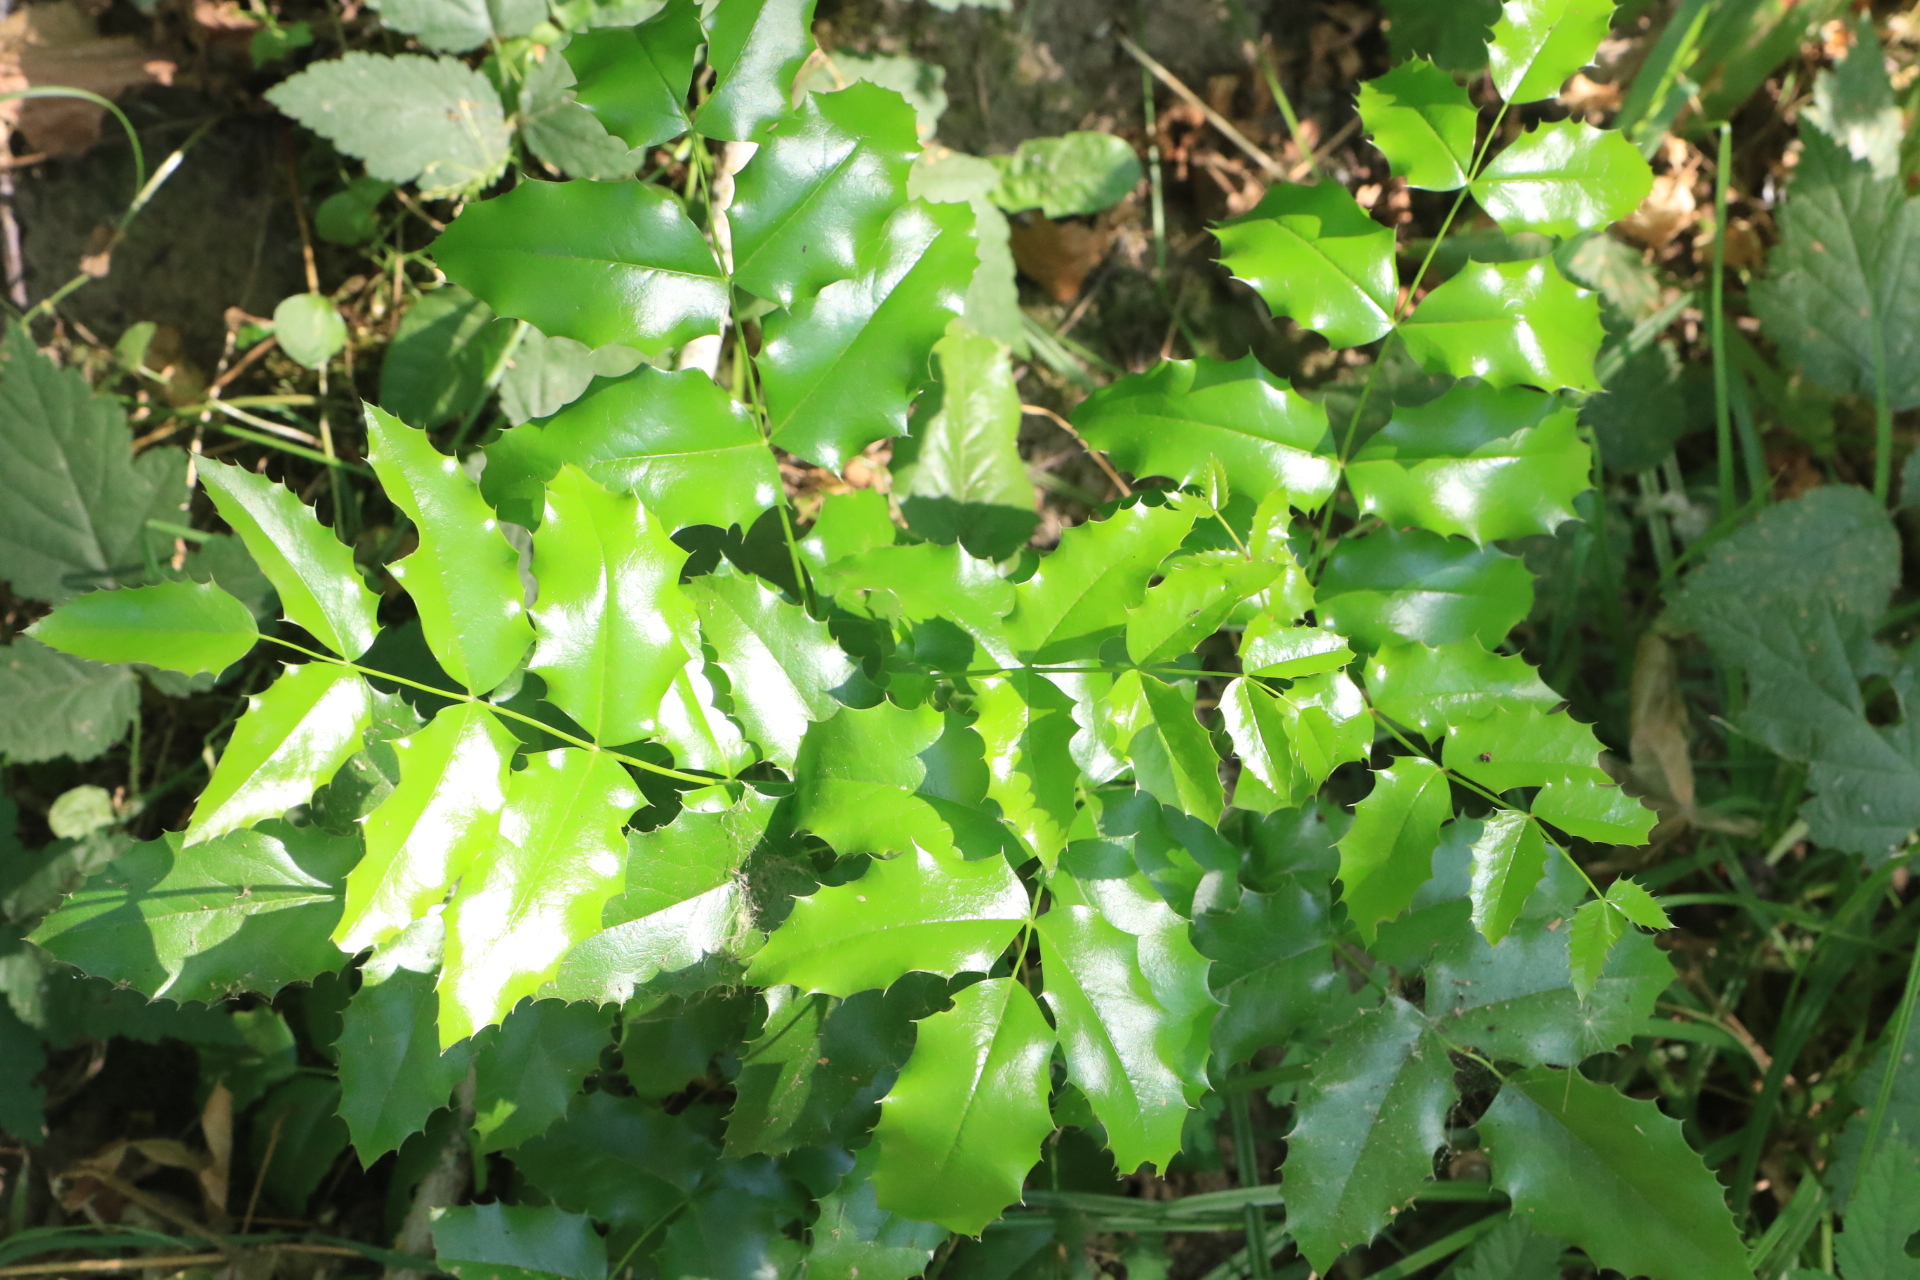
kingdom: Plantae
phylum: Tracheophyta
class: Magnoliopsida
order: Ranunculales
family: Berberidaceae
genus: Mahonia
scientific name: Mahonia aquifolium
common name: Oregon-grape
